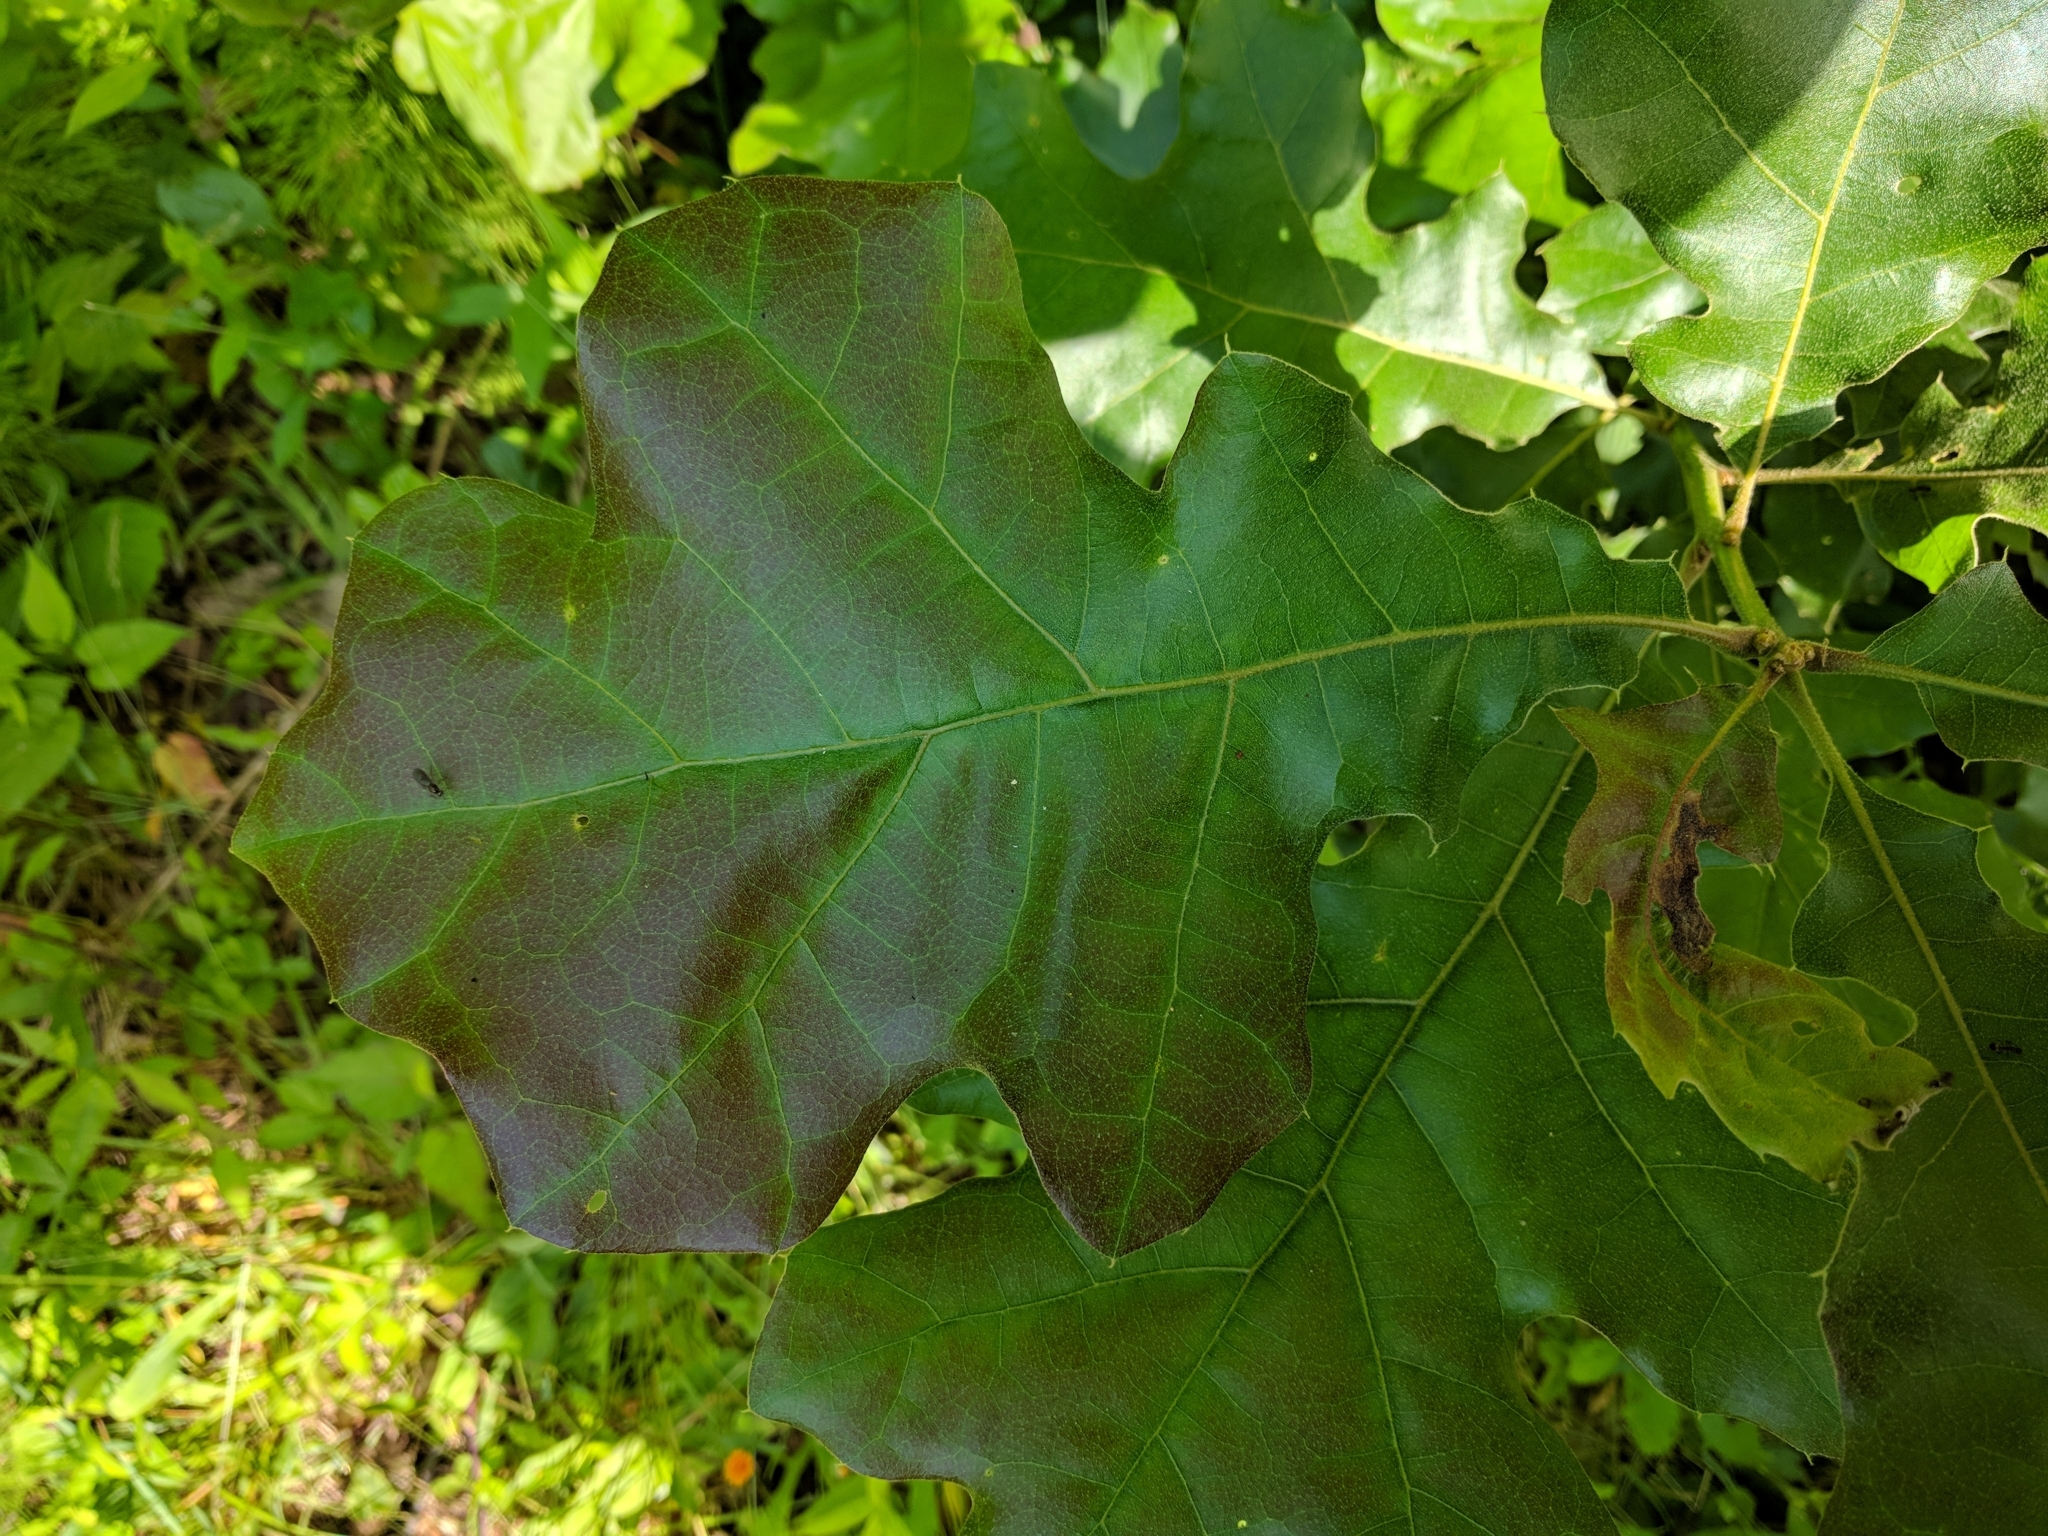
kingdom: Plantae
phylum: Tracheophyta
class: Magnoliopsida
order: Fagales
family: Fagaceae
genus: Quercus
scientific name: Quercus velutina
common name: Black oak
